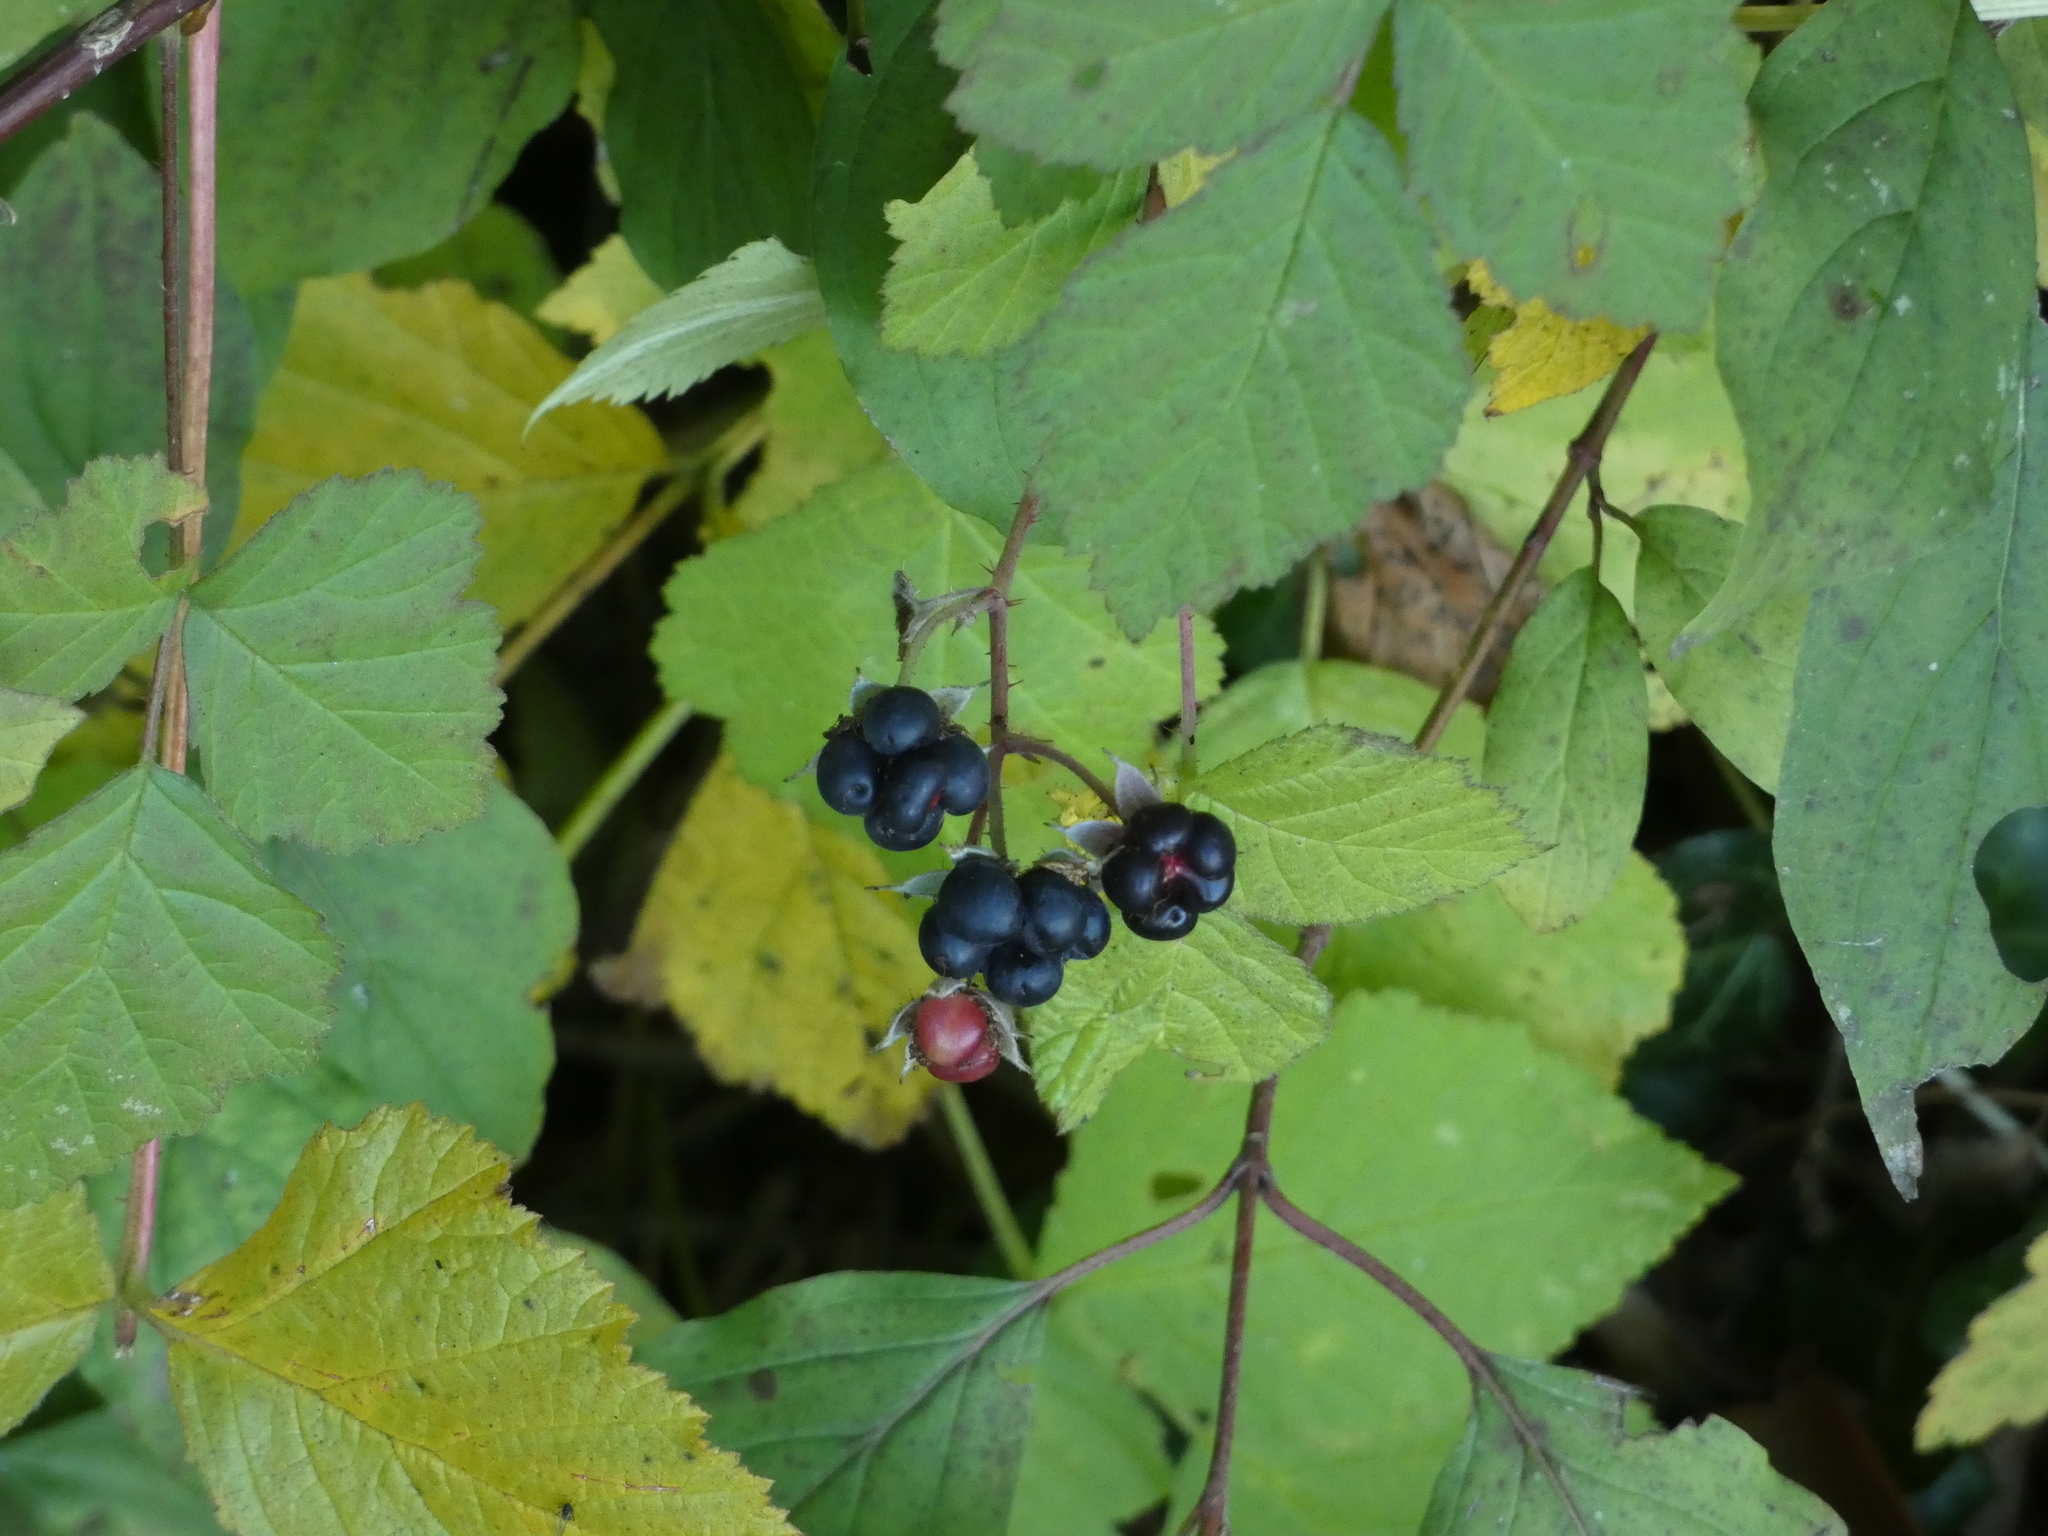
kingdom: Plantae
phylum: Tracheophyta
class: Magnoliopsida
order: Rosales
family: Rosaceae
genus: Rubus
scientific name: Rubus caesius
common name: Dewberry
